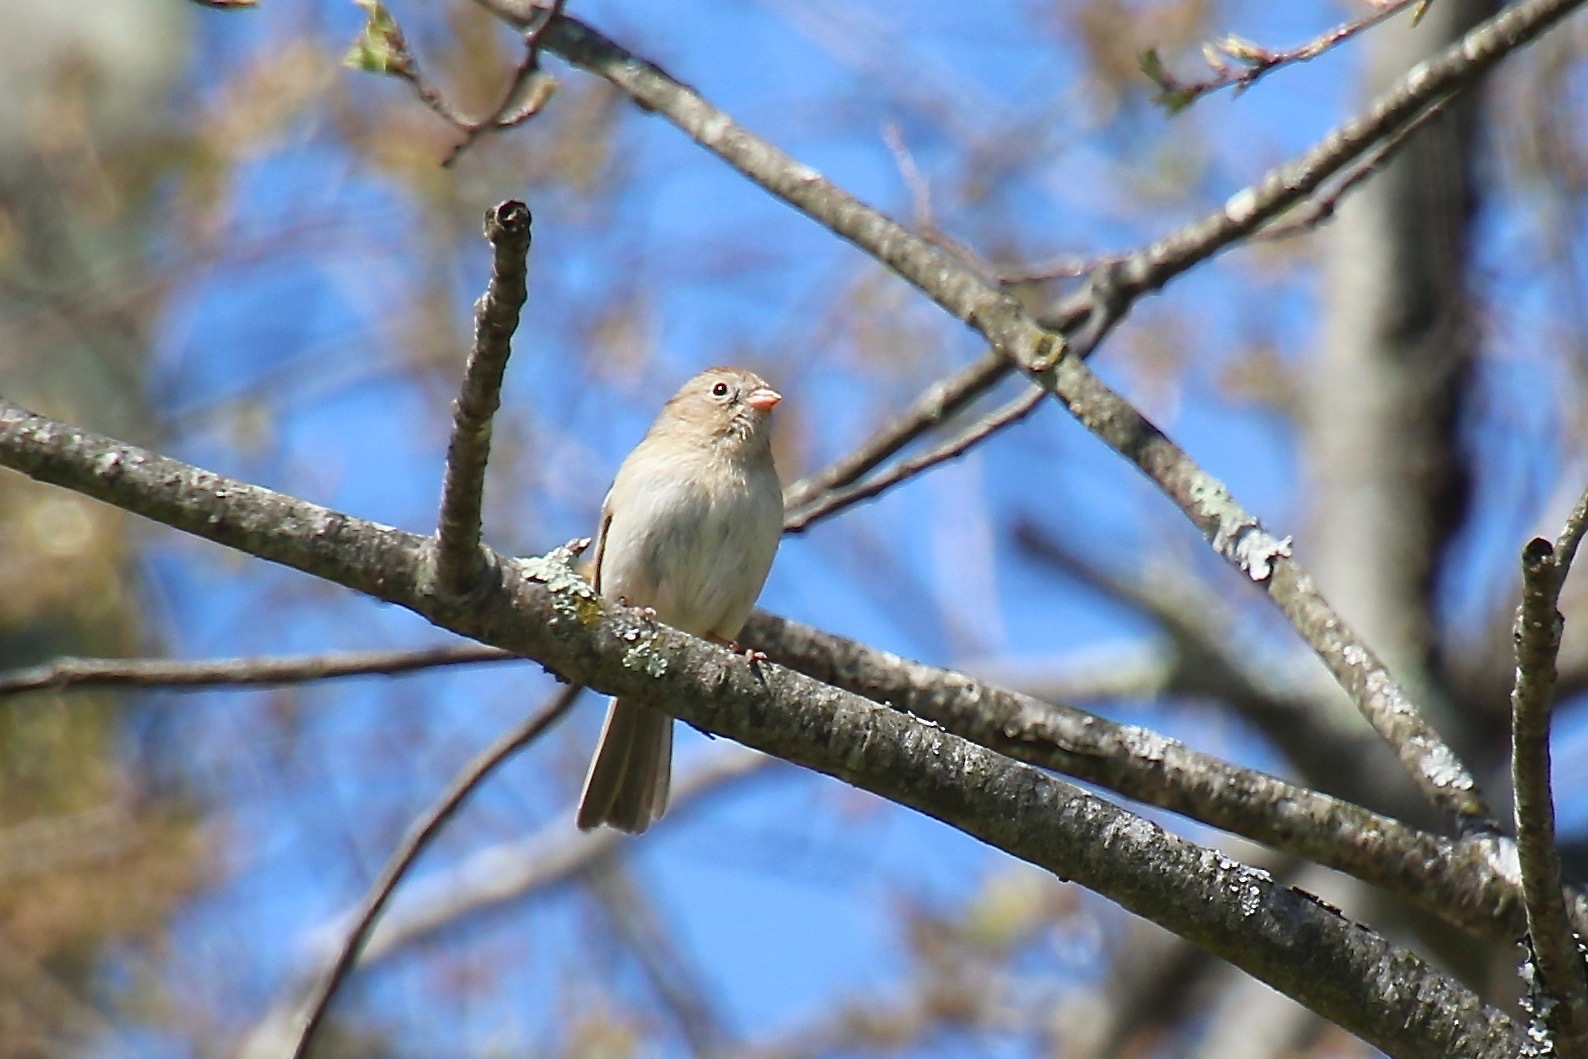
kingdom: Animalia
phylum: Chordata
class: Aves
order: Passeriformes
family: Passerellidae
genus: Spizella
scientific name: Spizella pusilla
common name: Field sparrow
